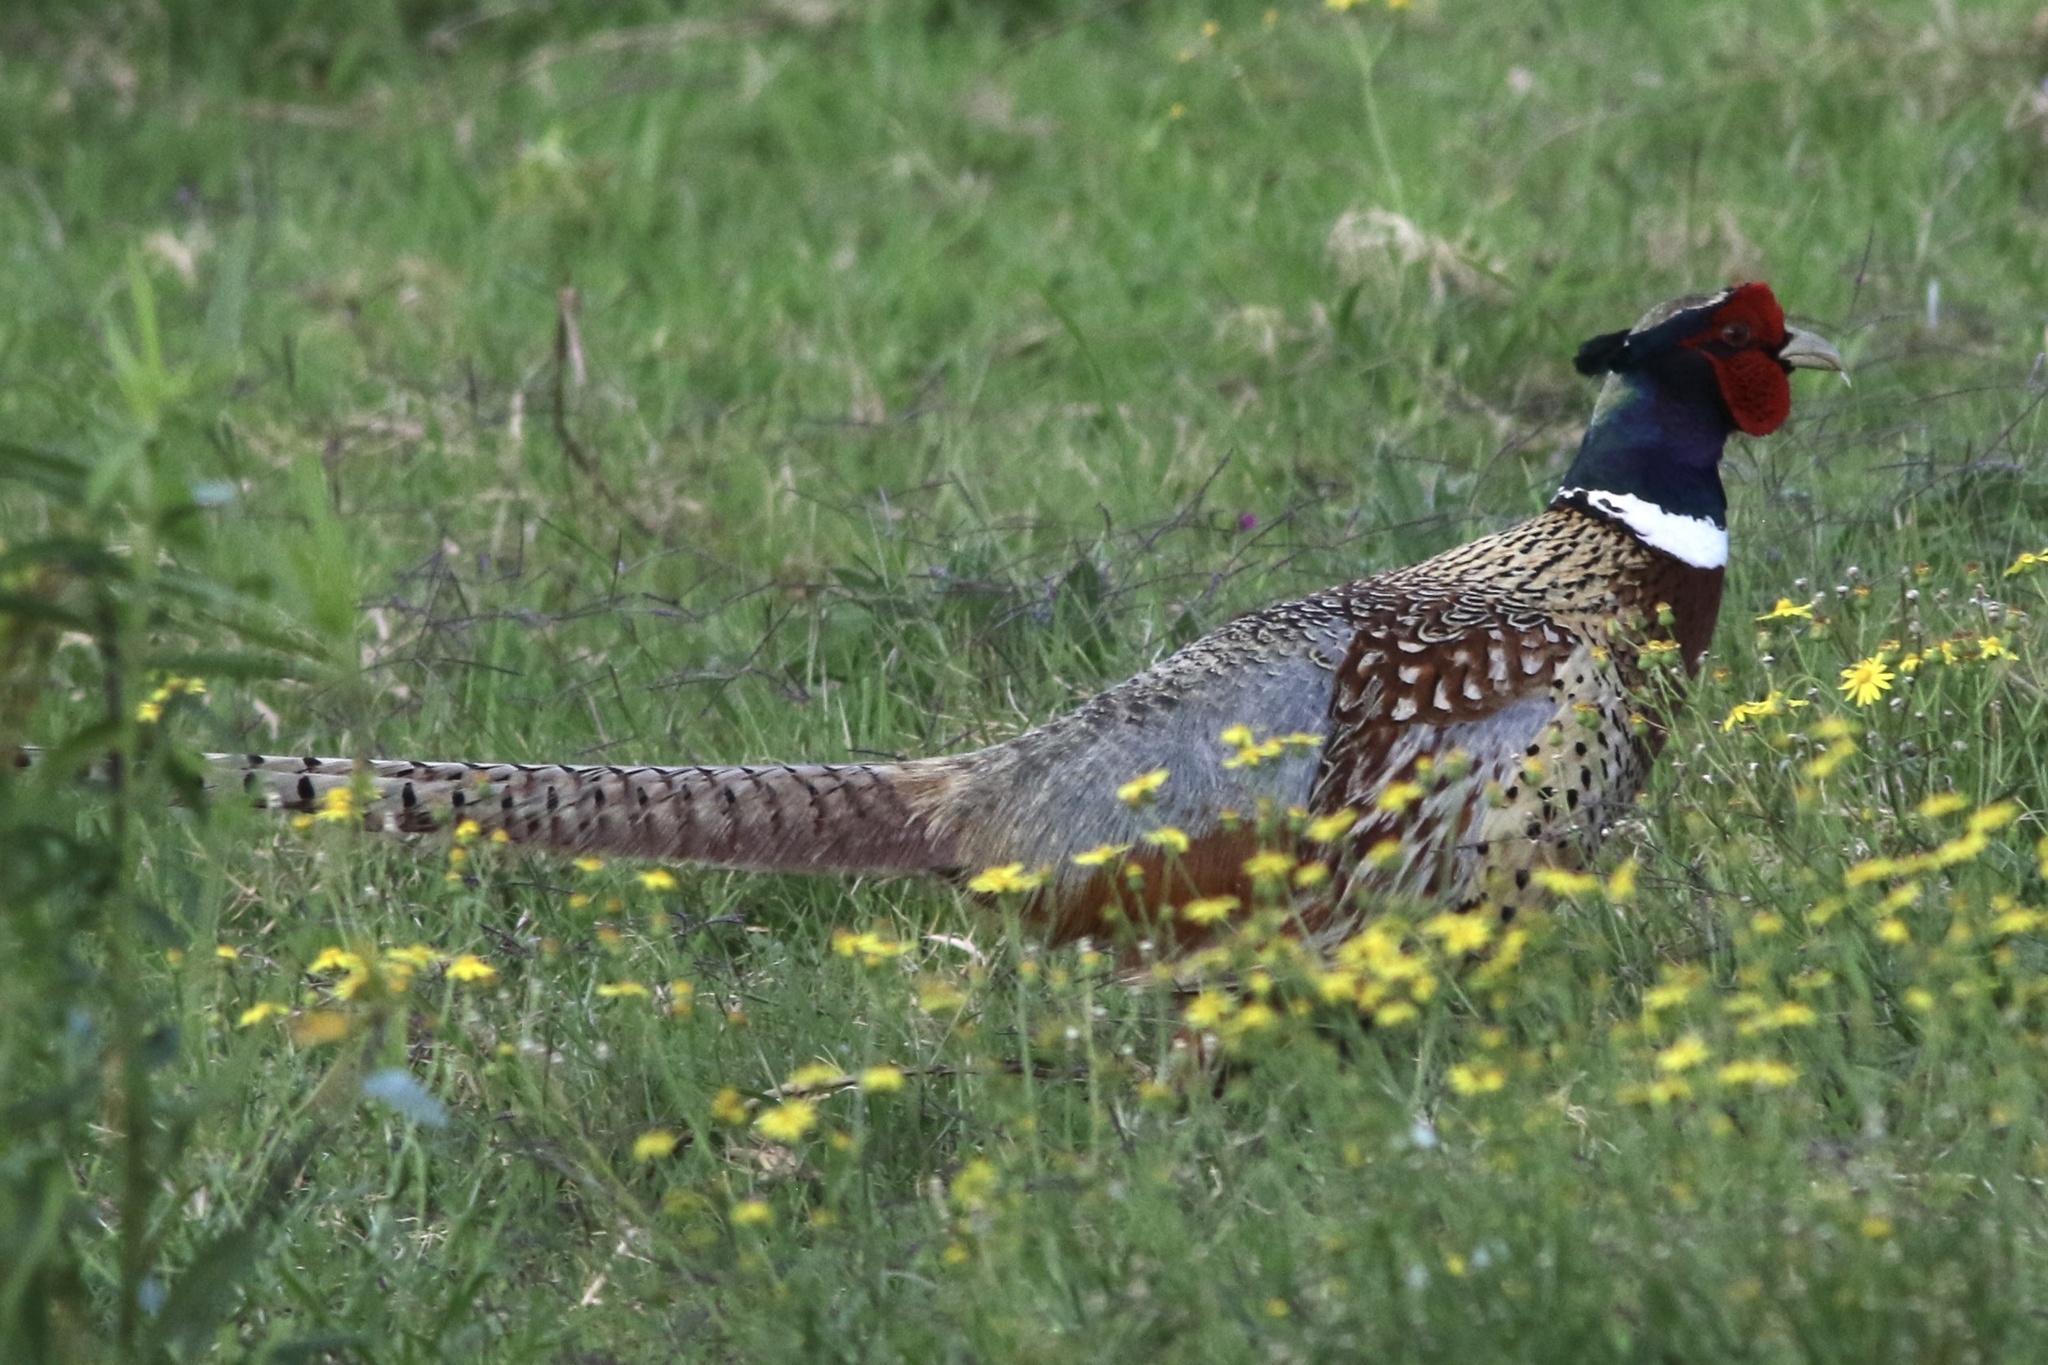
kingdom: Animalia
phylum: Chordata
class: Aves
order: Galliformes
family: Phasianidae
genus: Phasianus
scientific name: Phasianus colchicus
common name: Common pheasant
